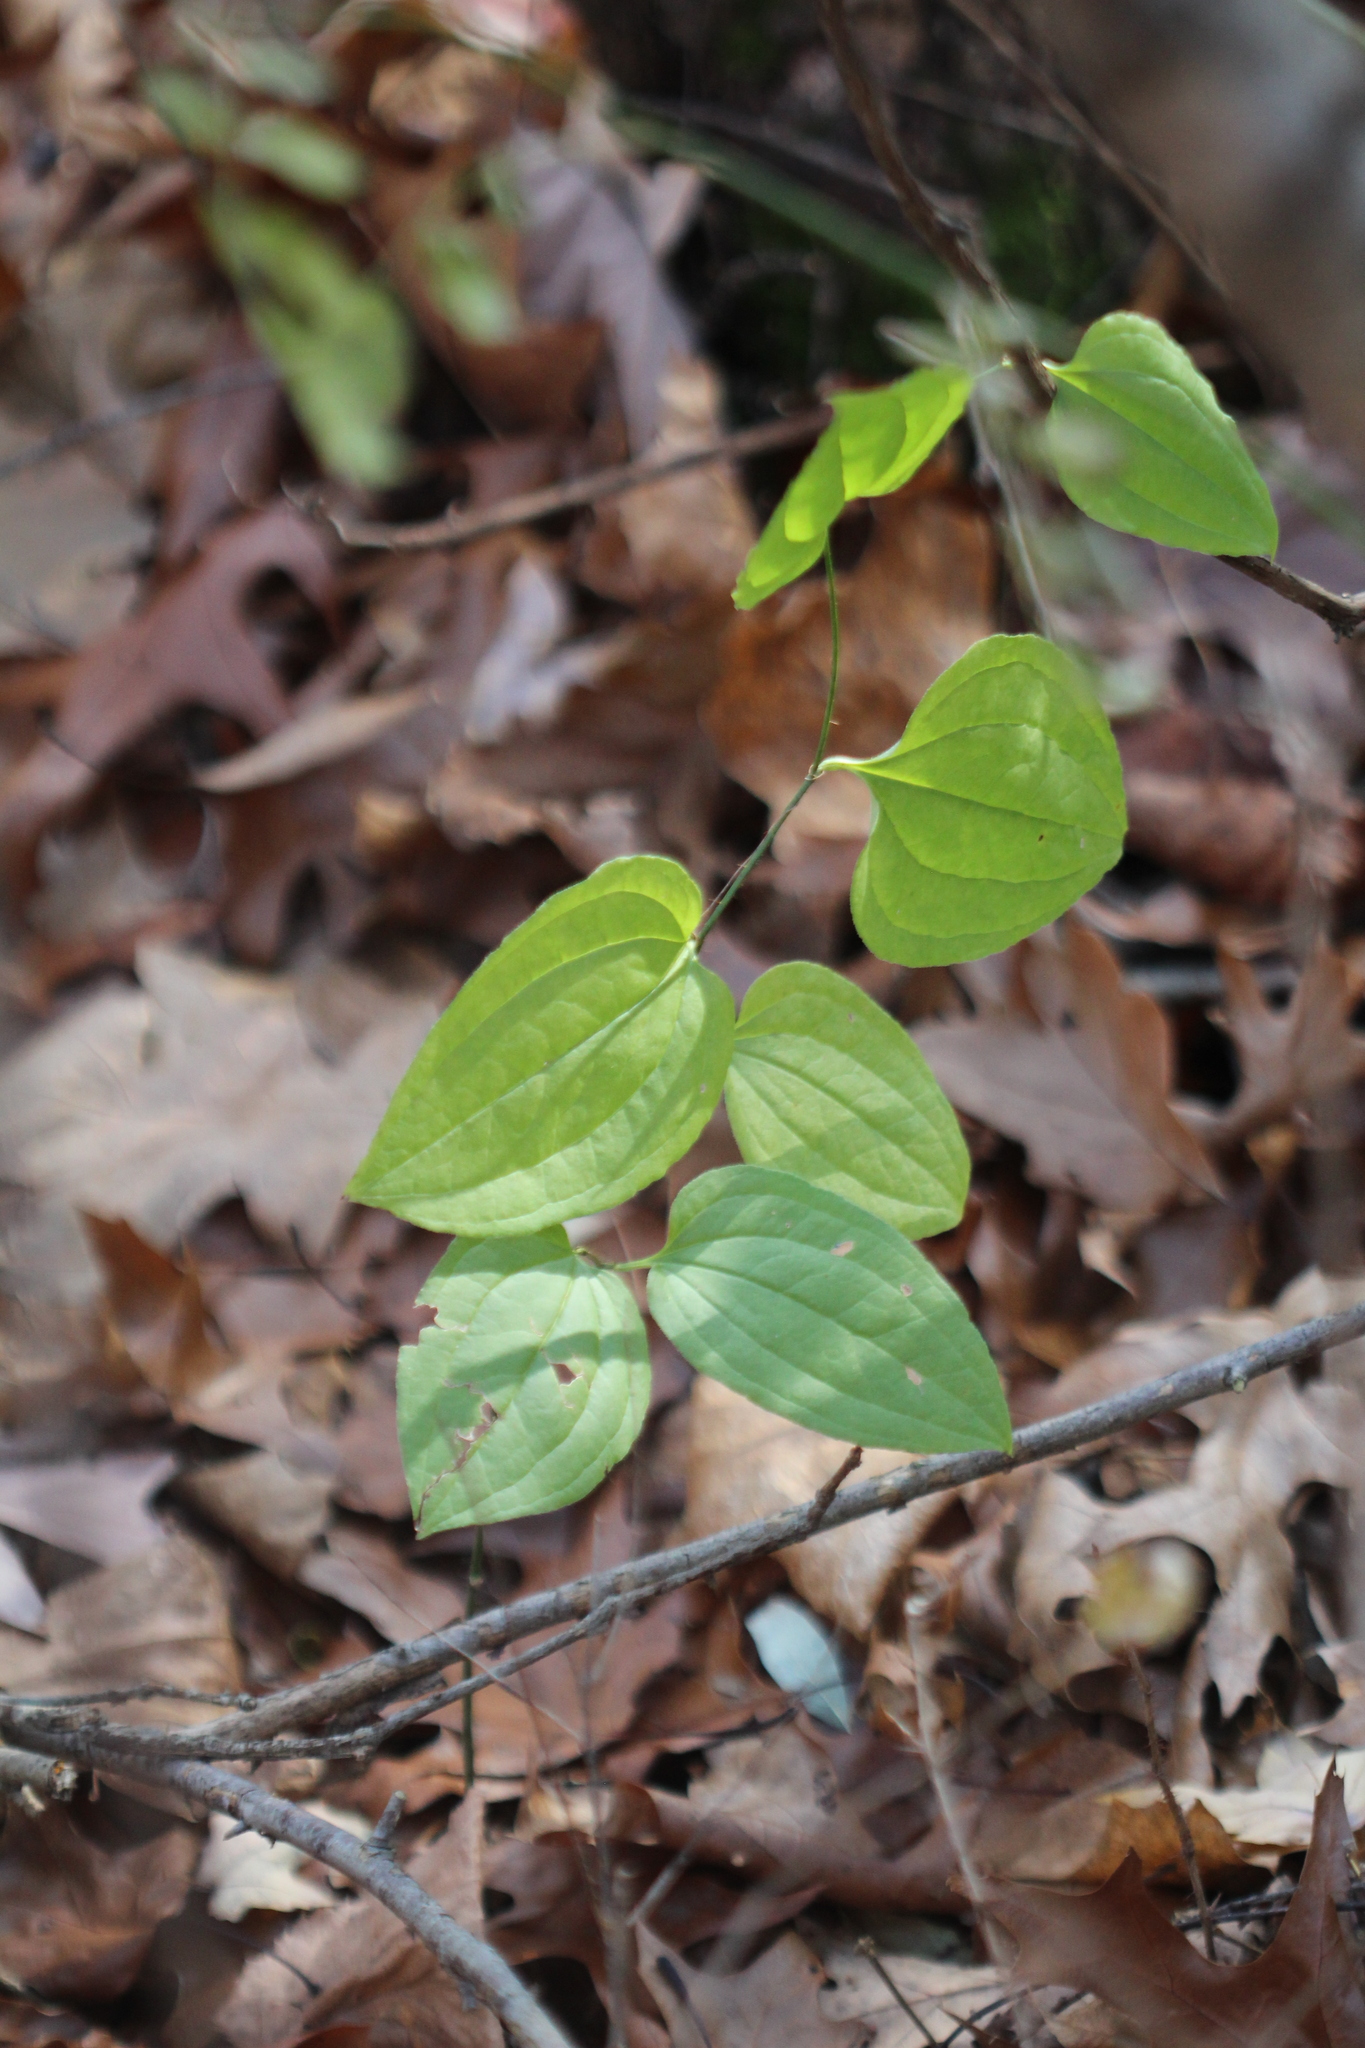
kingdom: Plantae
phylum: Tracheophyta
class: Liliopsida
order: Liliales
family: Smilacaceae
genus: Smilax
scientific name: Smilax tamnoides
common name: Hellfetter
